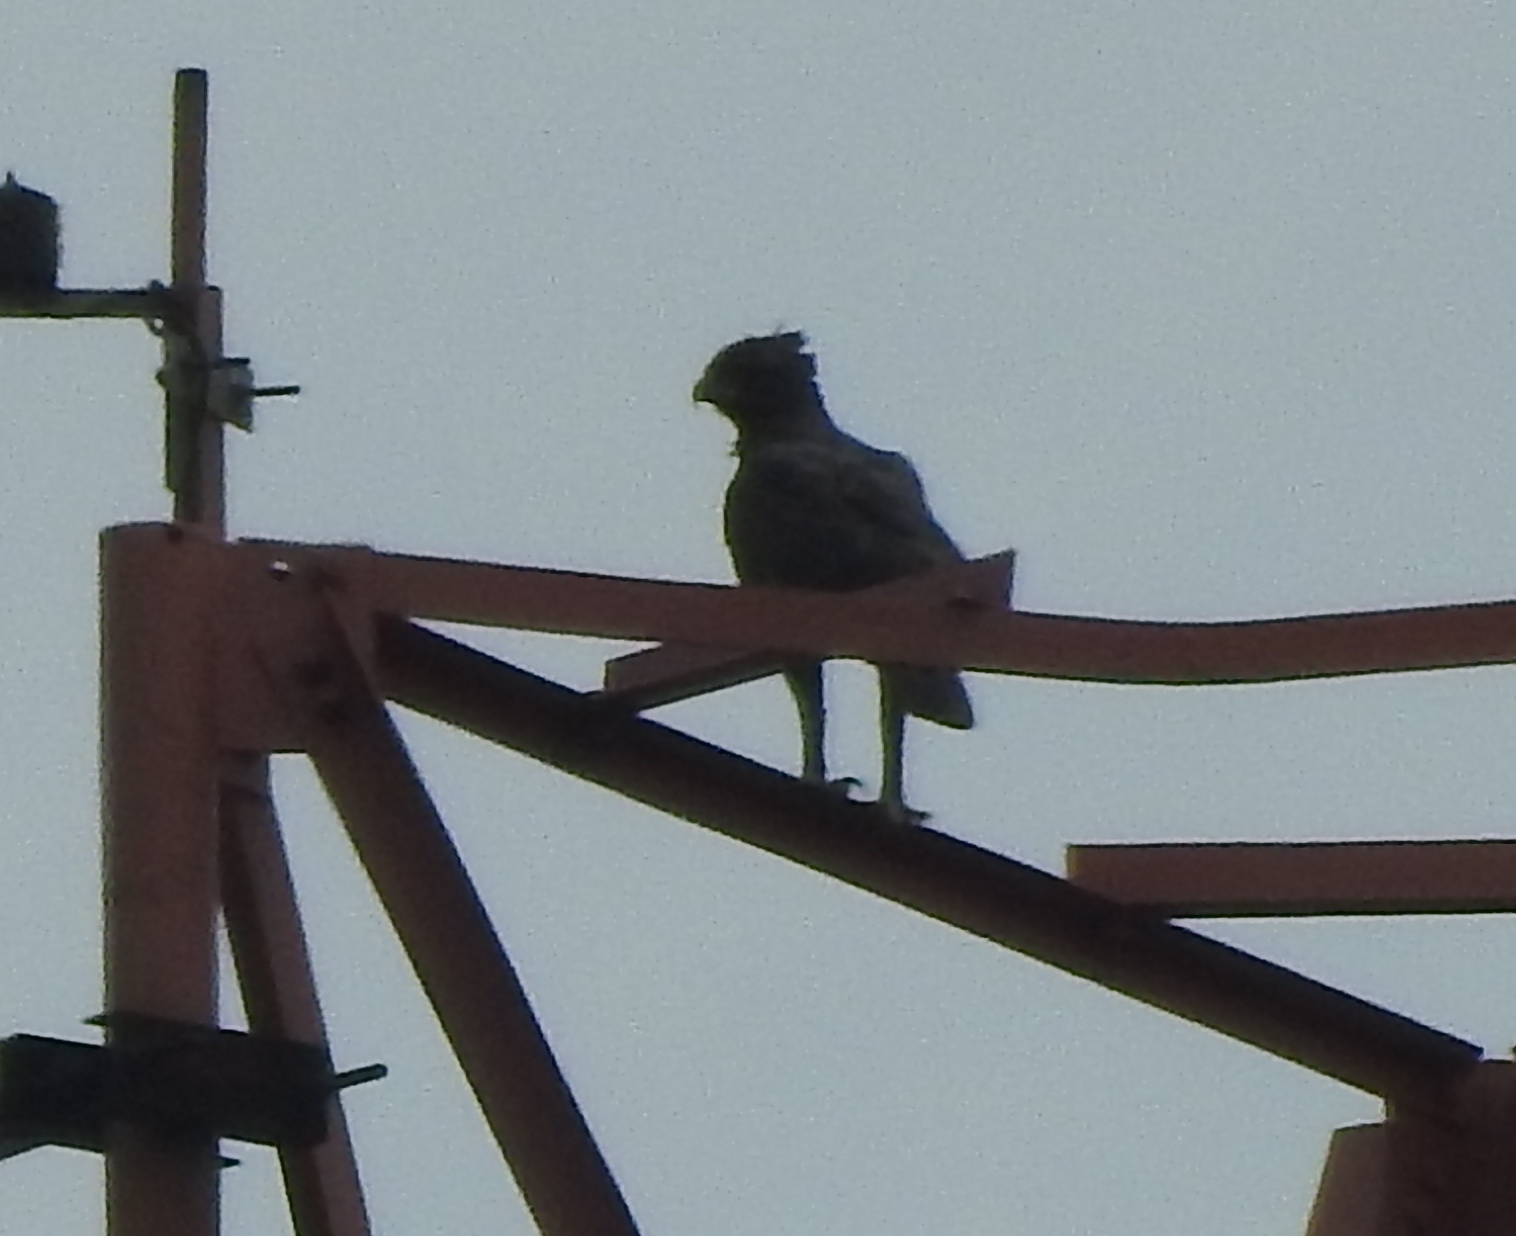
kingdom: Animalia
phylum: Chordata
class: Aves
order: Accipitriformes
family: Accipitridae
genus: Nisaetus
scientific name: Nisaetus cirrhatus
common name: Changeable hawk-eagle
